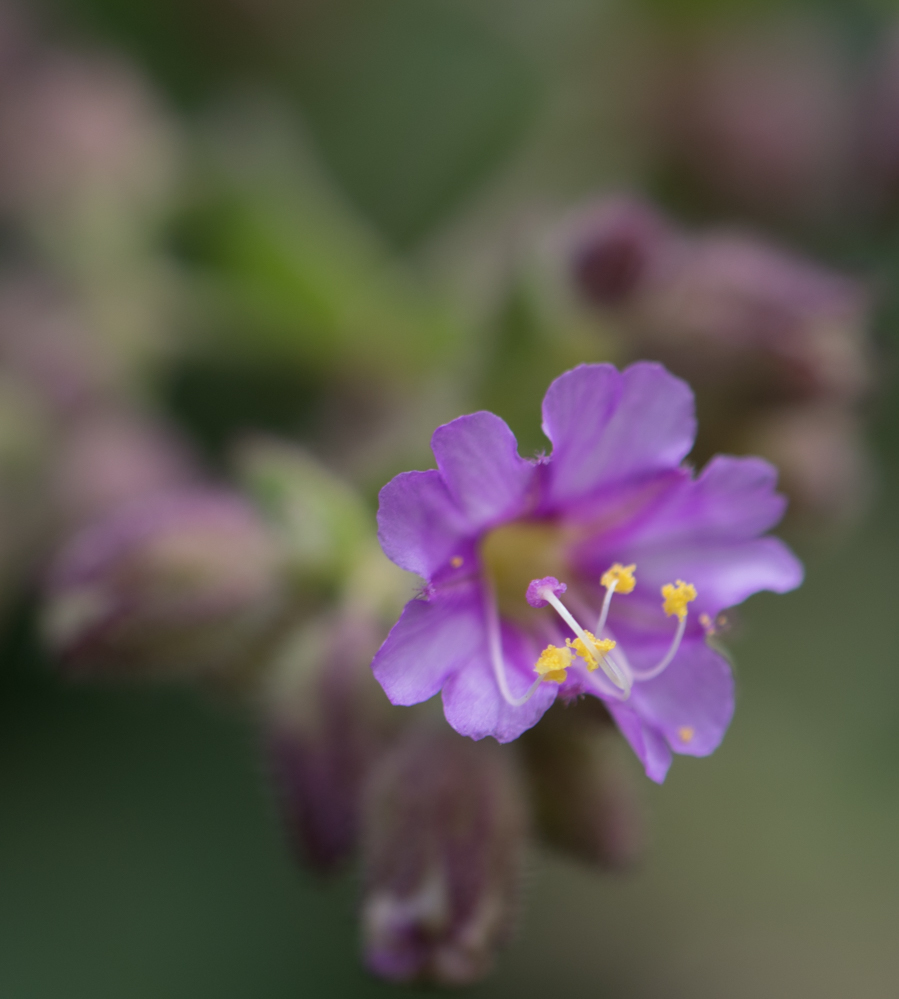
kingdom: Plantae
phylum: Tracheophyta
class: Magnoliopsida
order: Caryophyllales
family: Nyctaginaceae
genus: Mirabilis
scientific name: Mirabilis laevis
